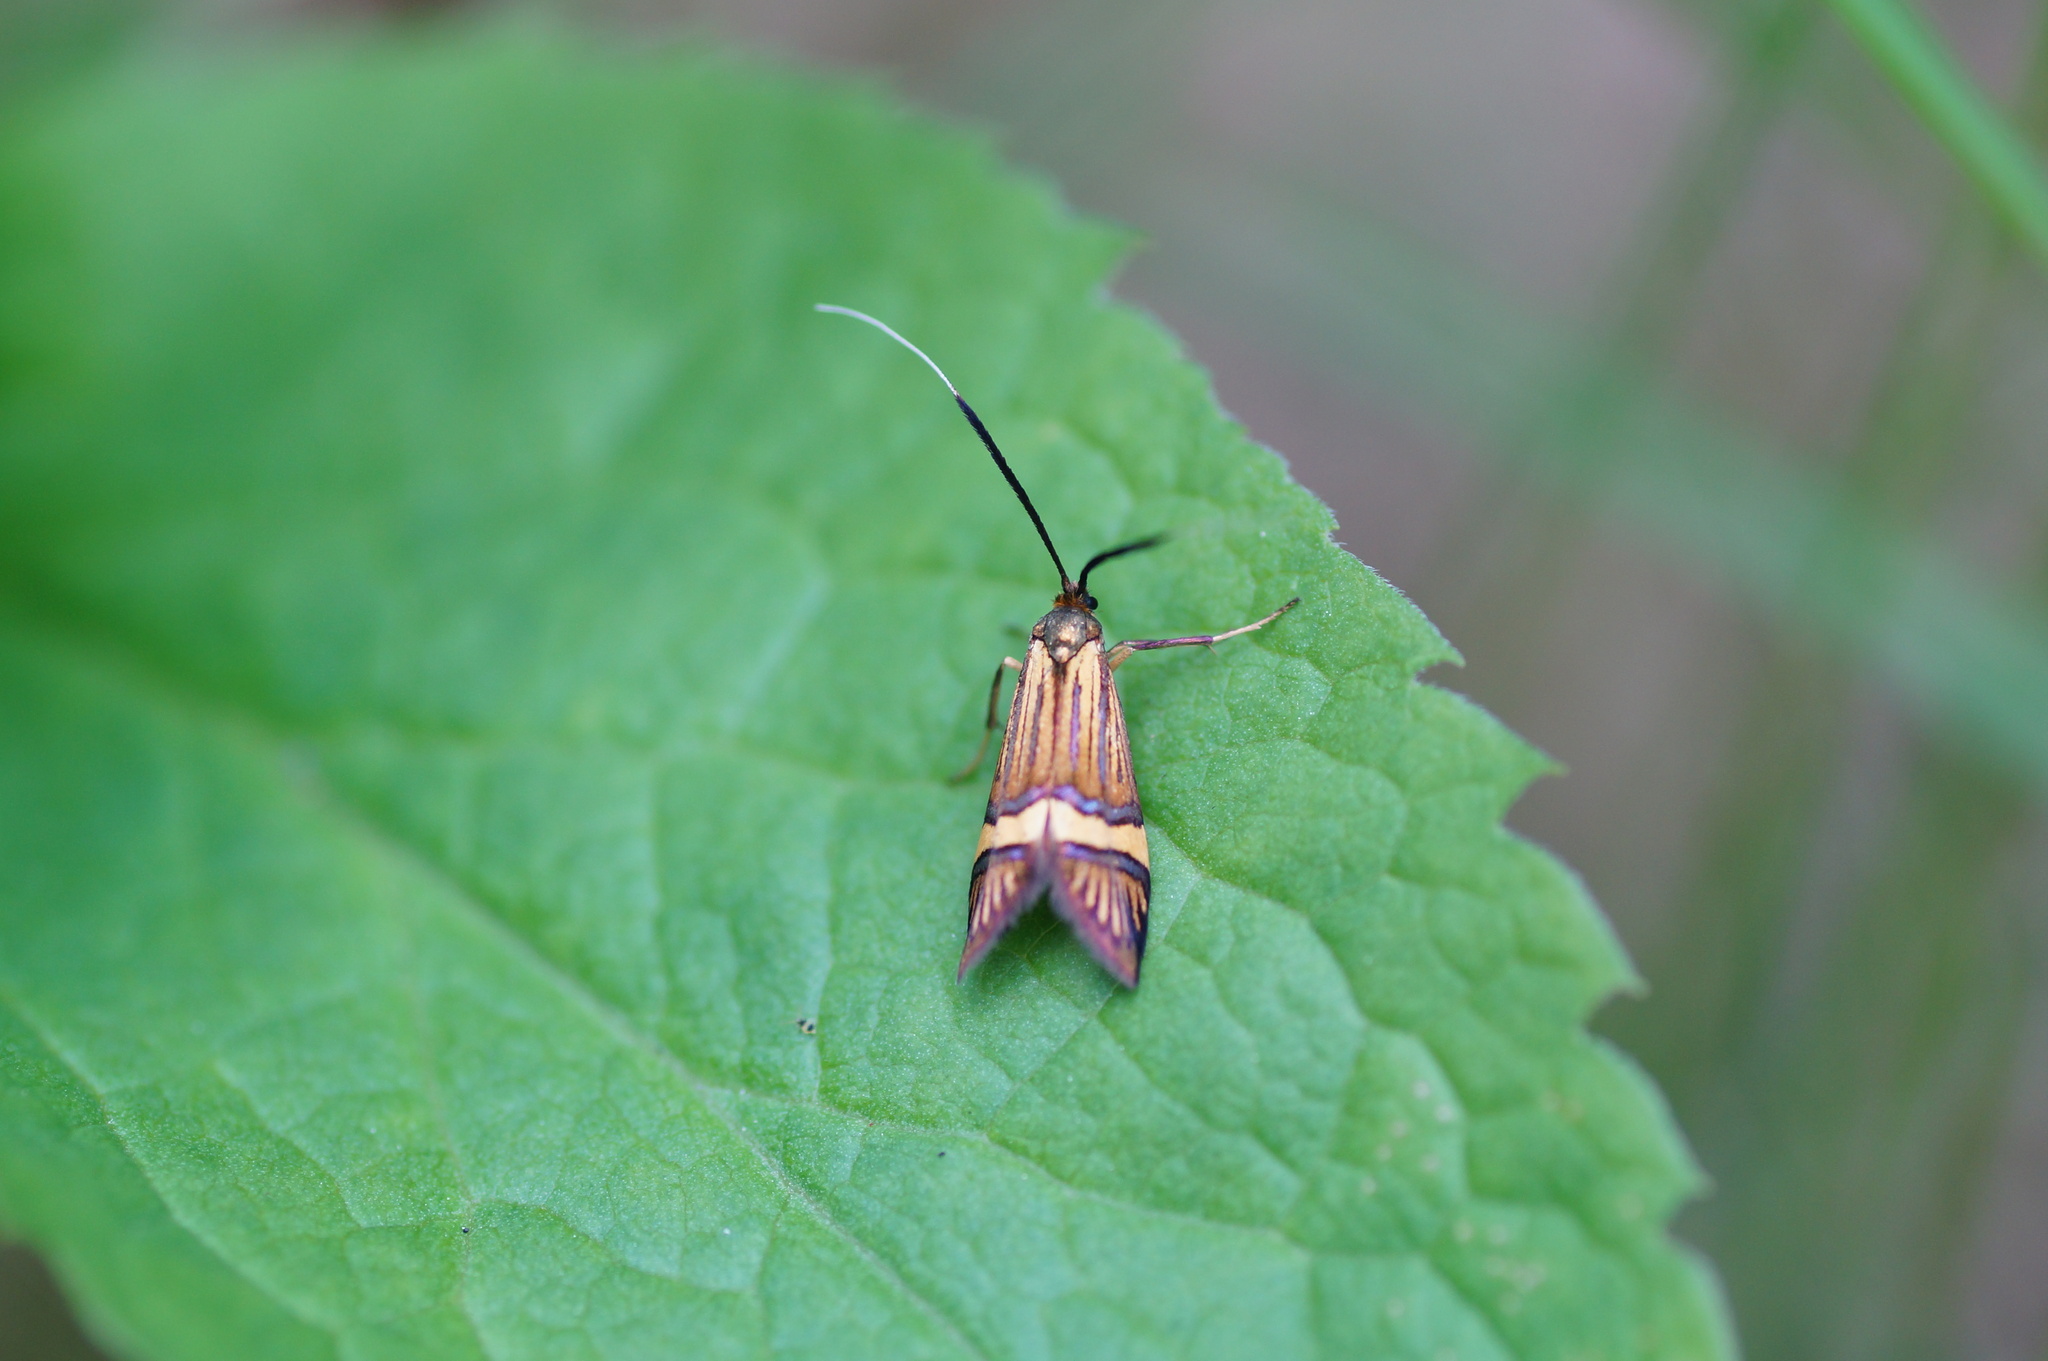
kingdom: Animalia
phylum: Arthropoda
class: Insecta
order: Lepidoptera
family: Adelidae
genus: Nemophora
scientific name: Nemophora degeerella
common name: Yellow-barred long-horn
